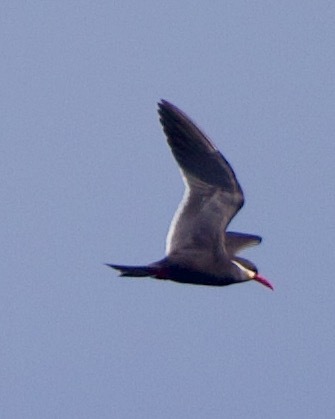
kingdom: Animalia
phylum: Chordata
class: Aves
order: Charadriiformes
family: Laridae
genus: Larosterna
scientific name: Larosterna inca
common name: Inca tern
